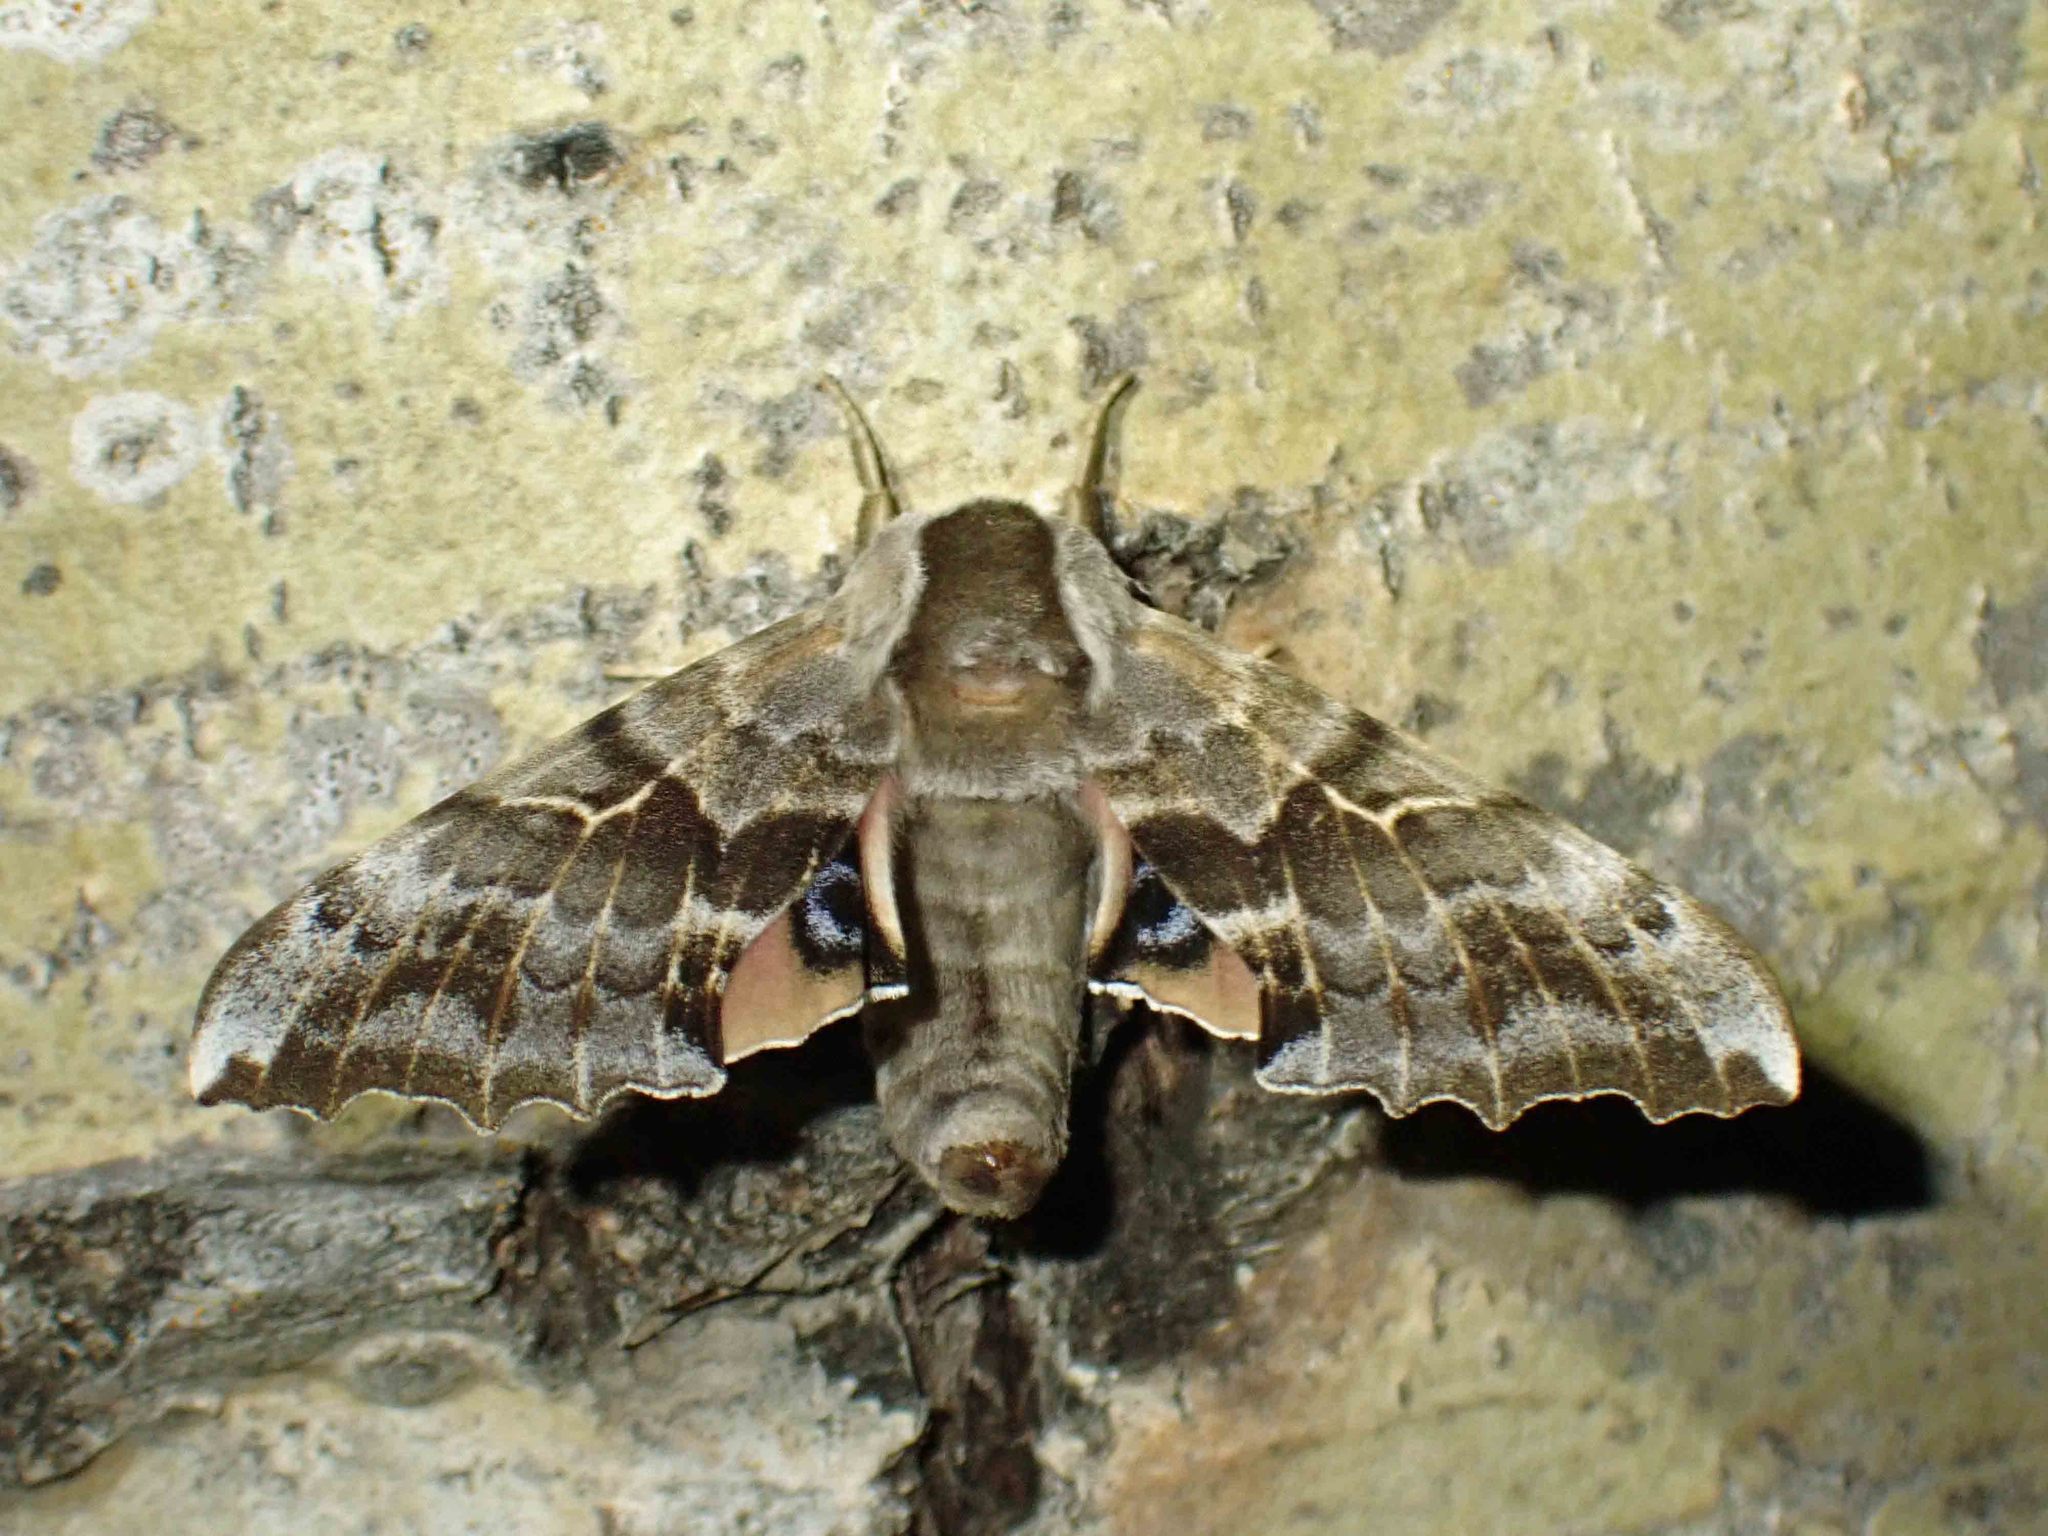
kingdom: Animalia
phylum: Arthropoda
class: Insecta
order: Lepidoptera
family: Sphingidae
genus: Smerinthus
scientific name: Smerinthus cerisyi
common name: Cerisy's sphinx moth
